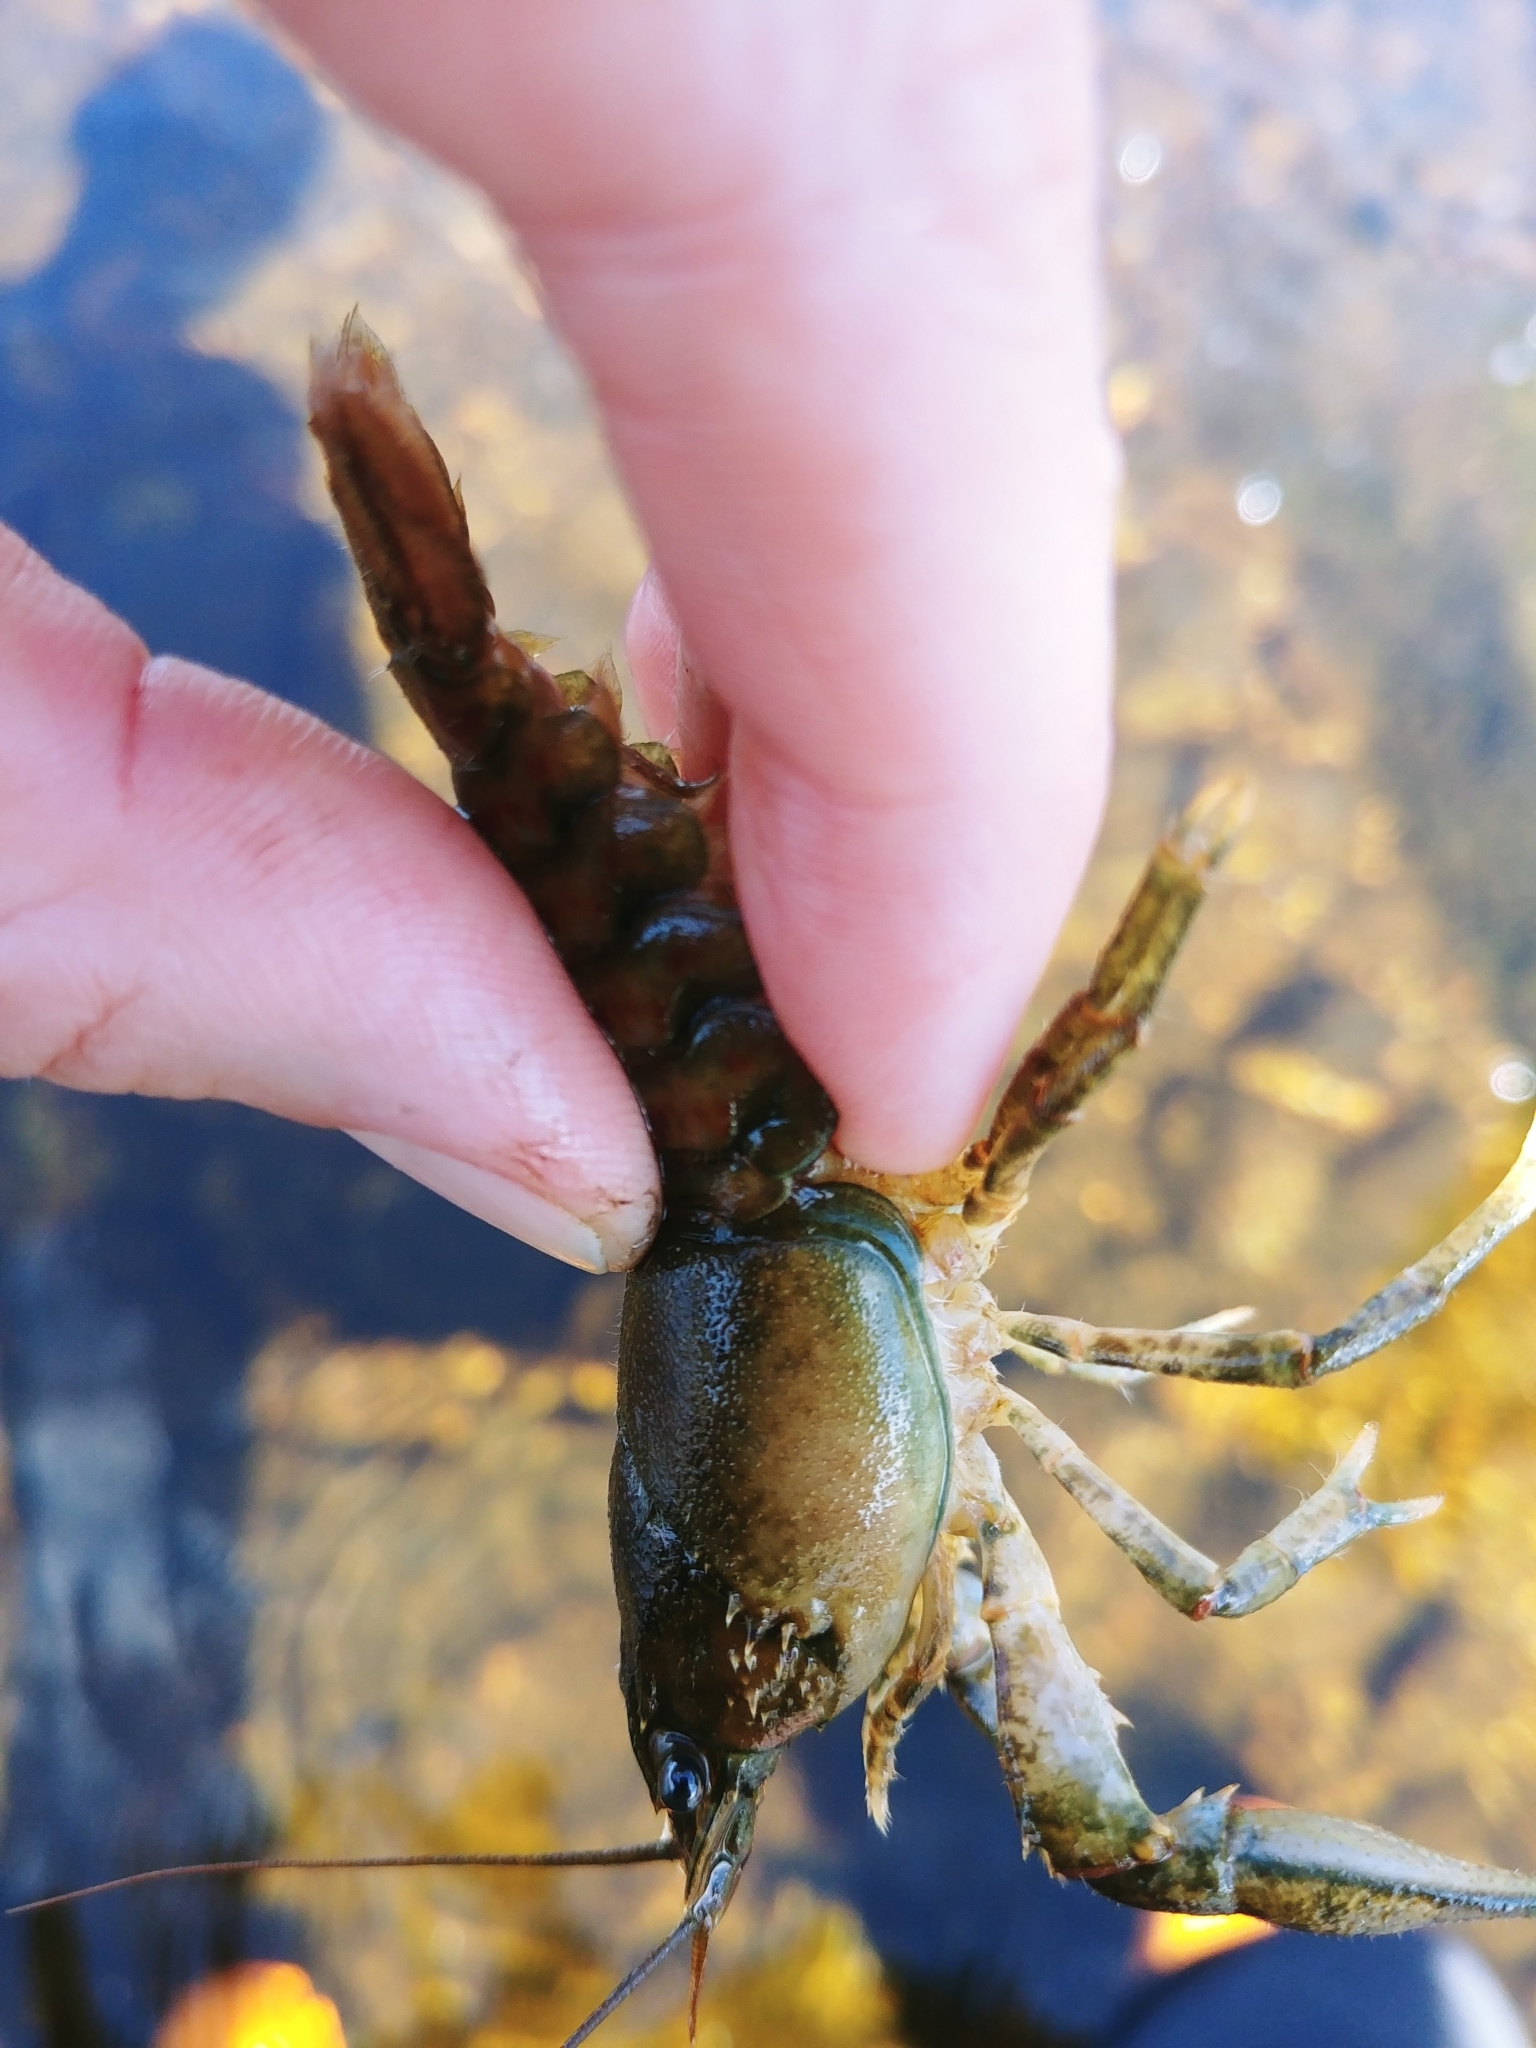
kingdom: Animalia
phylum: Arthropoda
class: Malacostraca
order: Decapoda
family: Cambaridae
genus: Faxonius
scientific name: Faxonius limosus
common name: American crayfish
